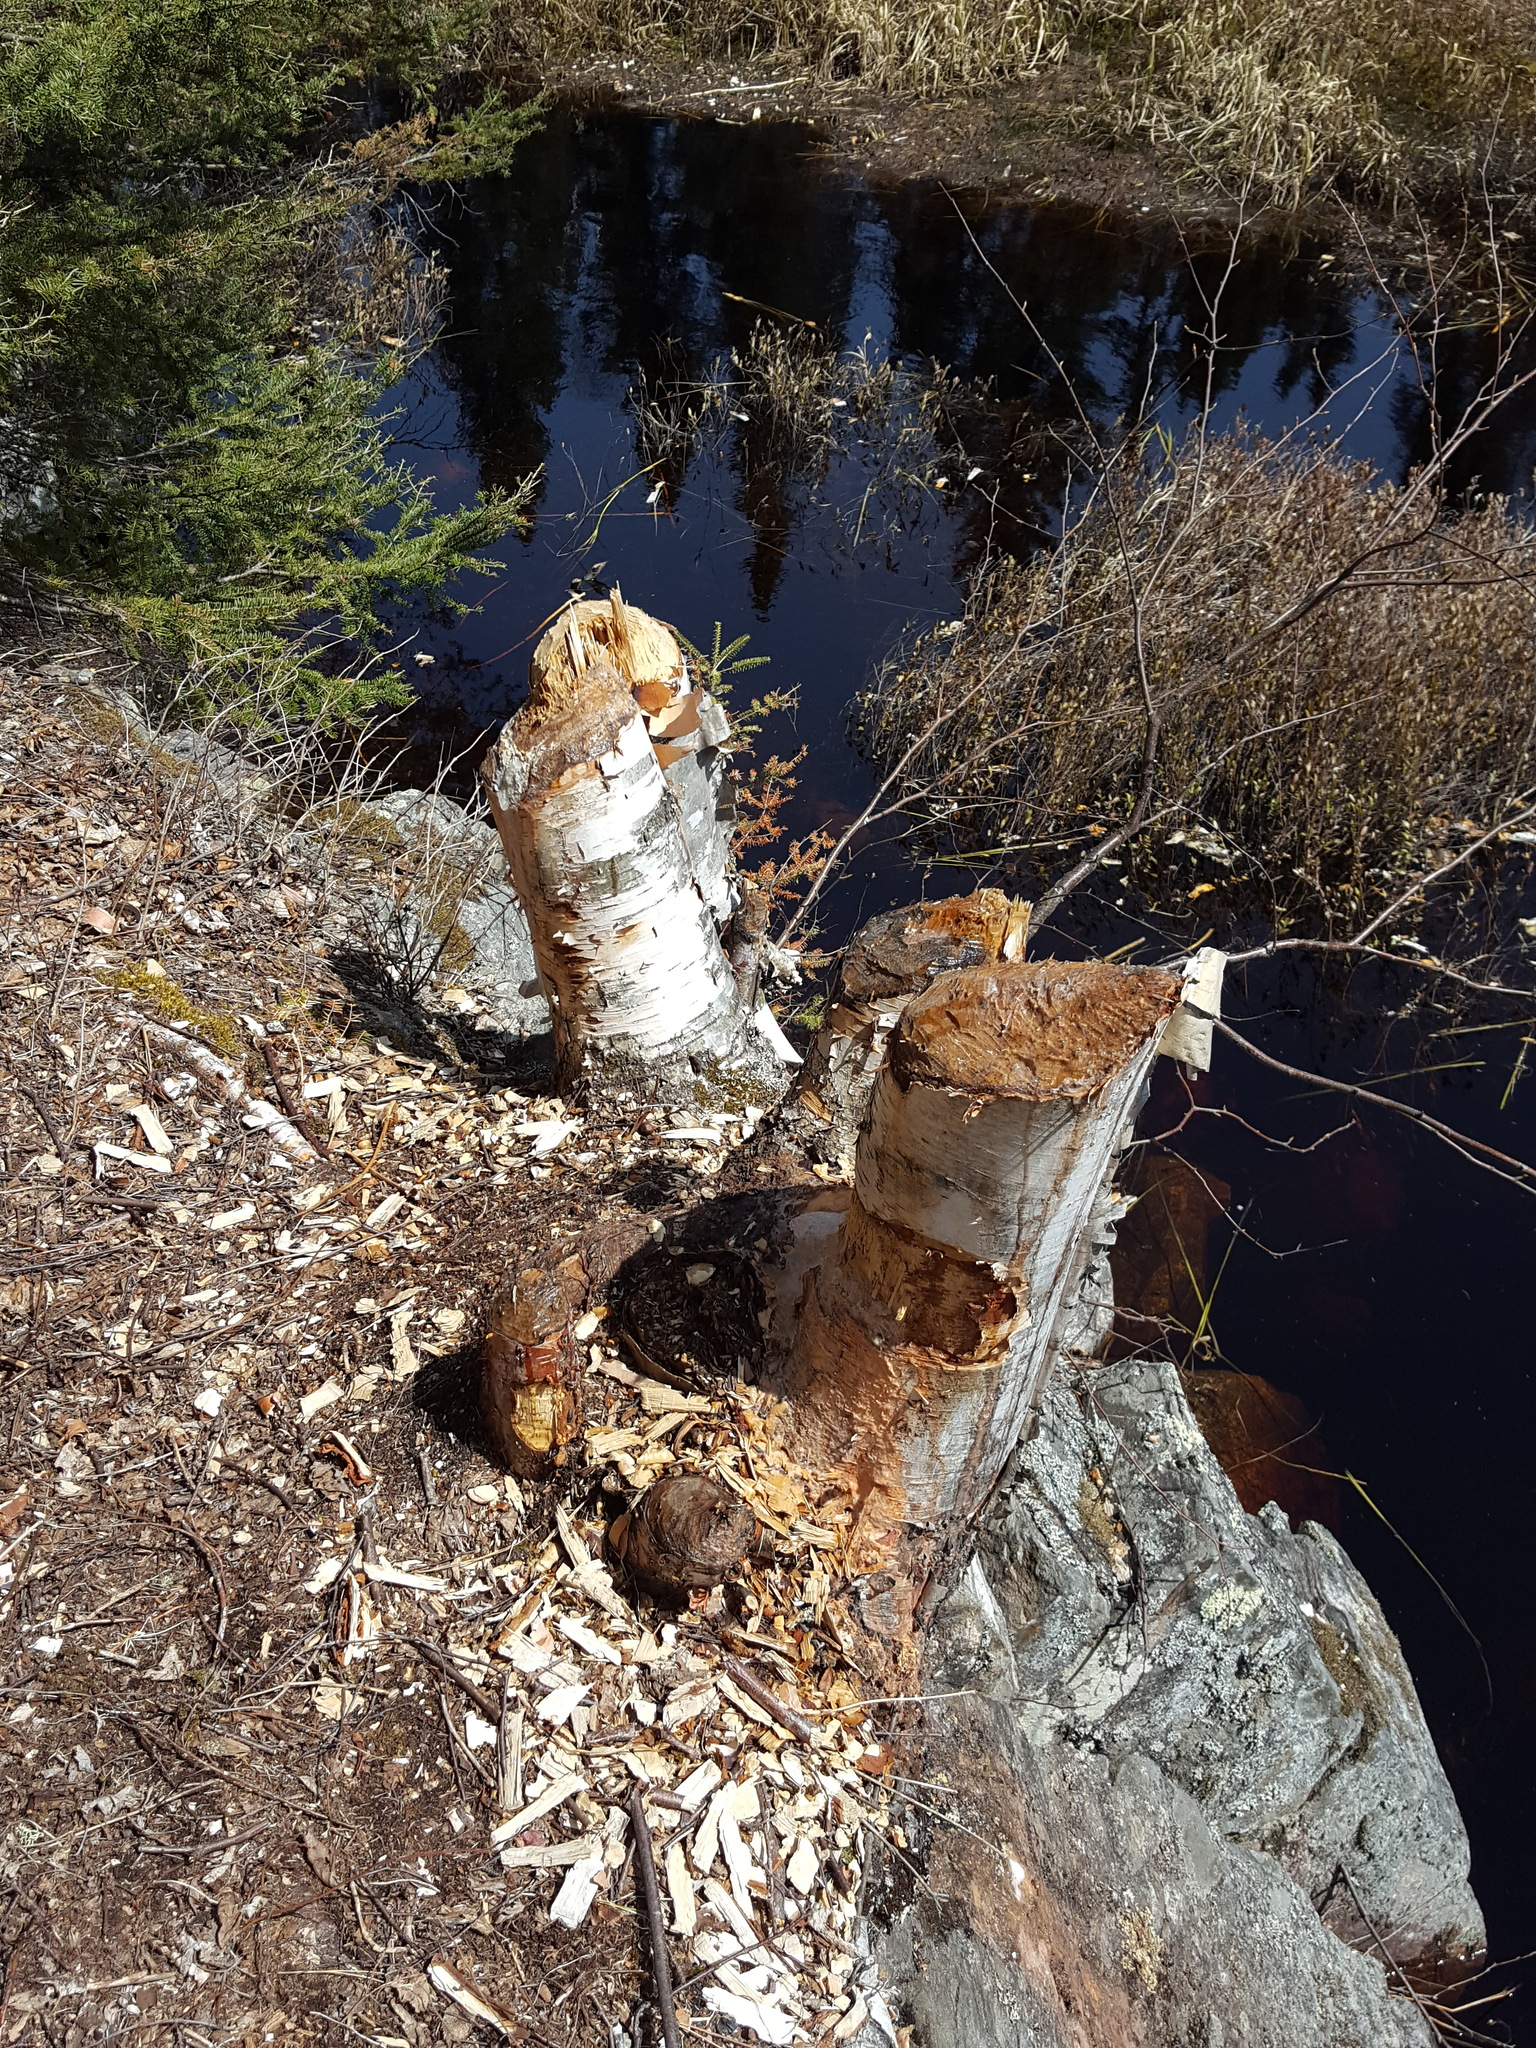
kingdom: Animalia
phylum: Chordata
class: Mammalia
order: Rodentia
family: Castoridae
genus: Castor
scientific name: Castor canadensis
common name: American beaver
